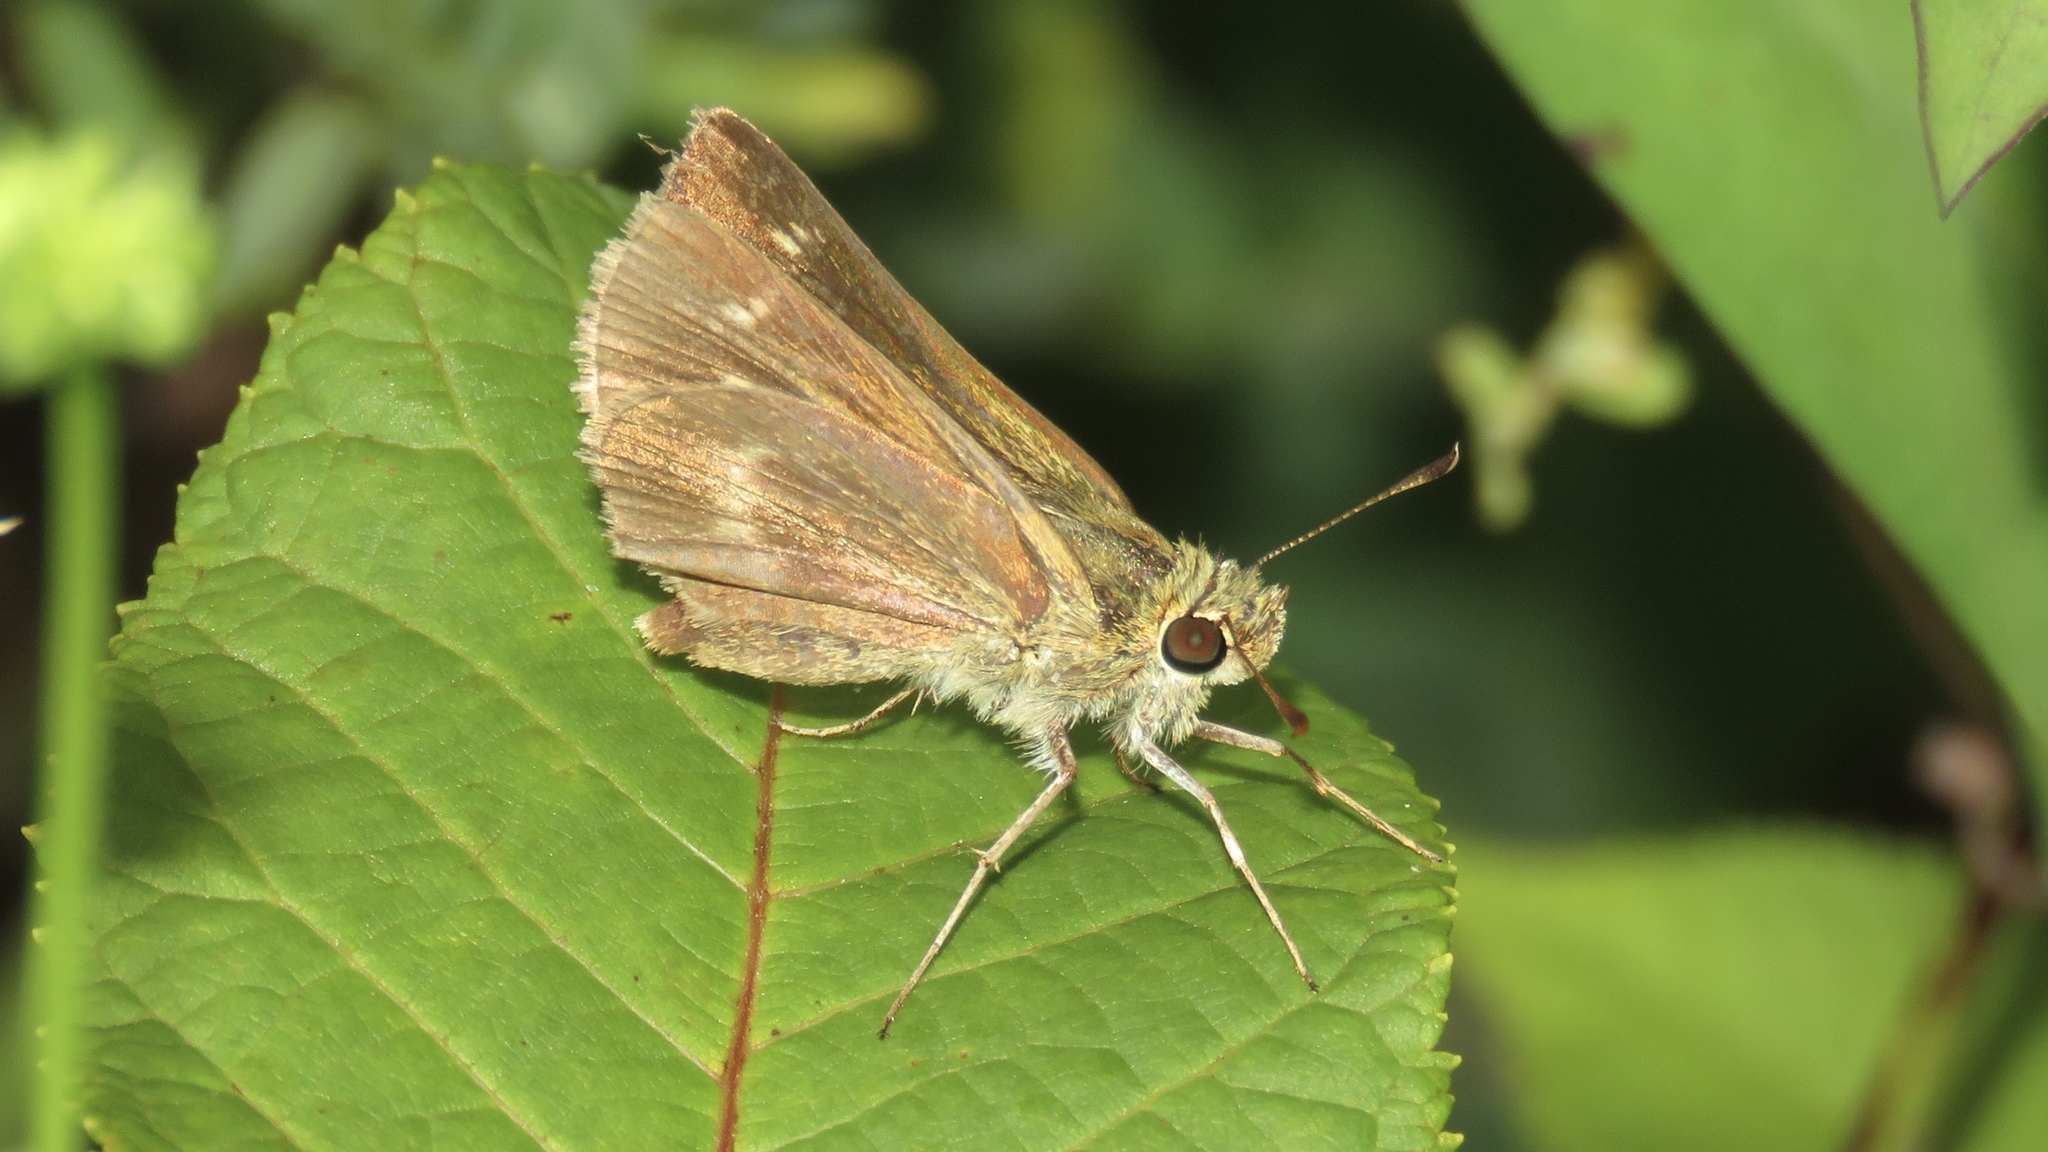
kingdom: Animalia
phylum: Arthropoda
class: Insecta
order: Lepidoptera
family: Hesperiidae
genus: Polites
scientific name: Polites egeremet
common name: Northern broken-dash
